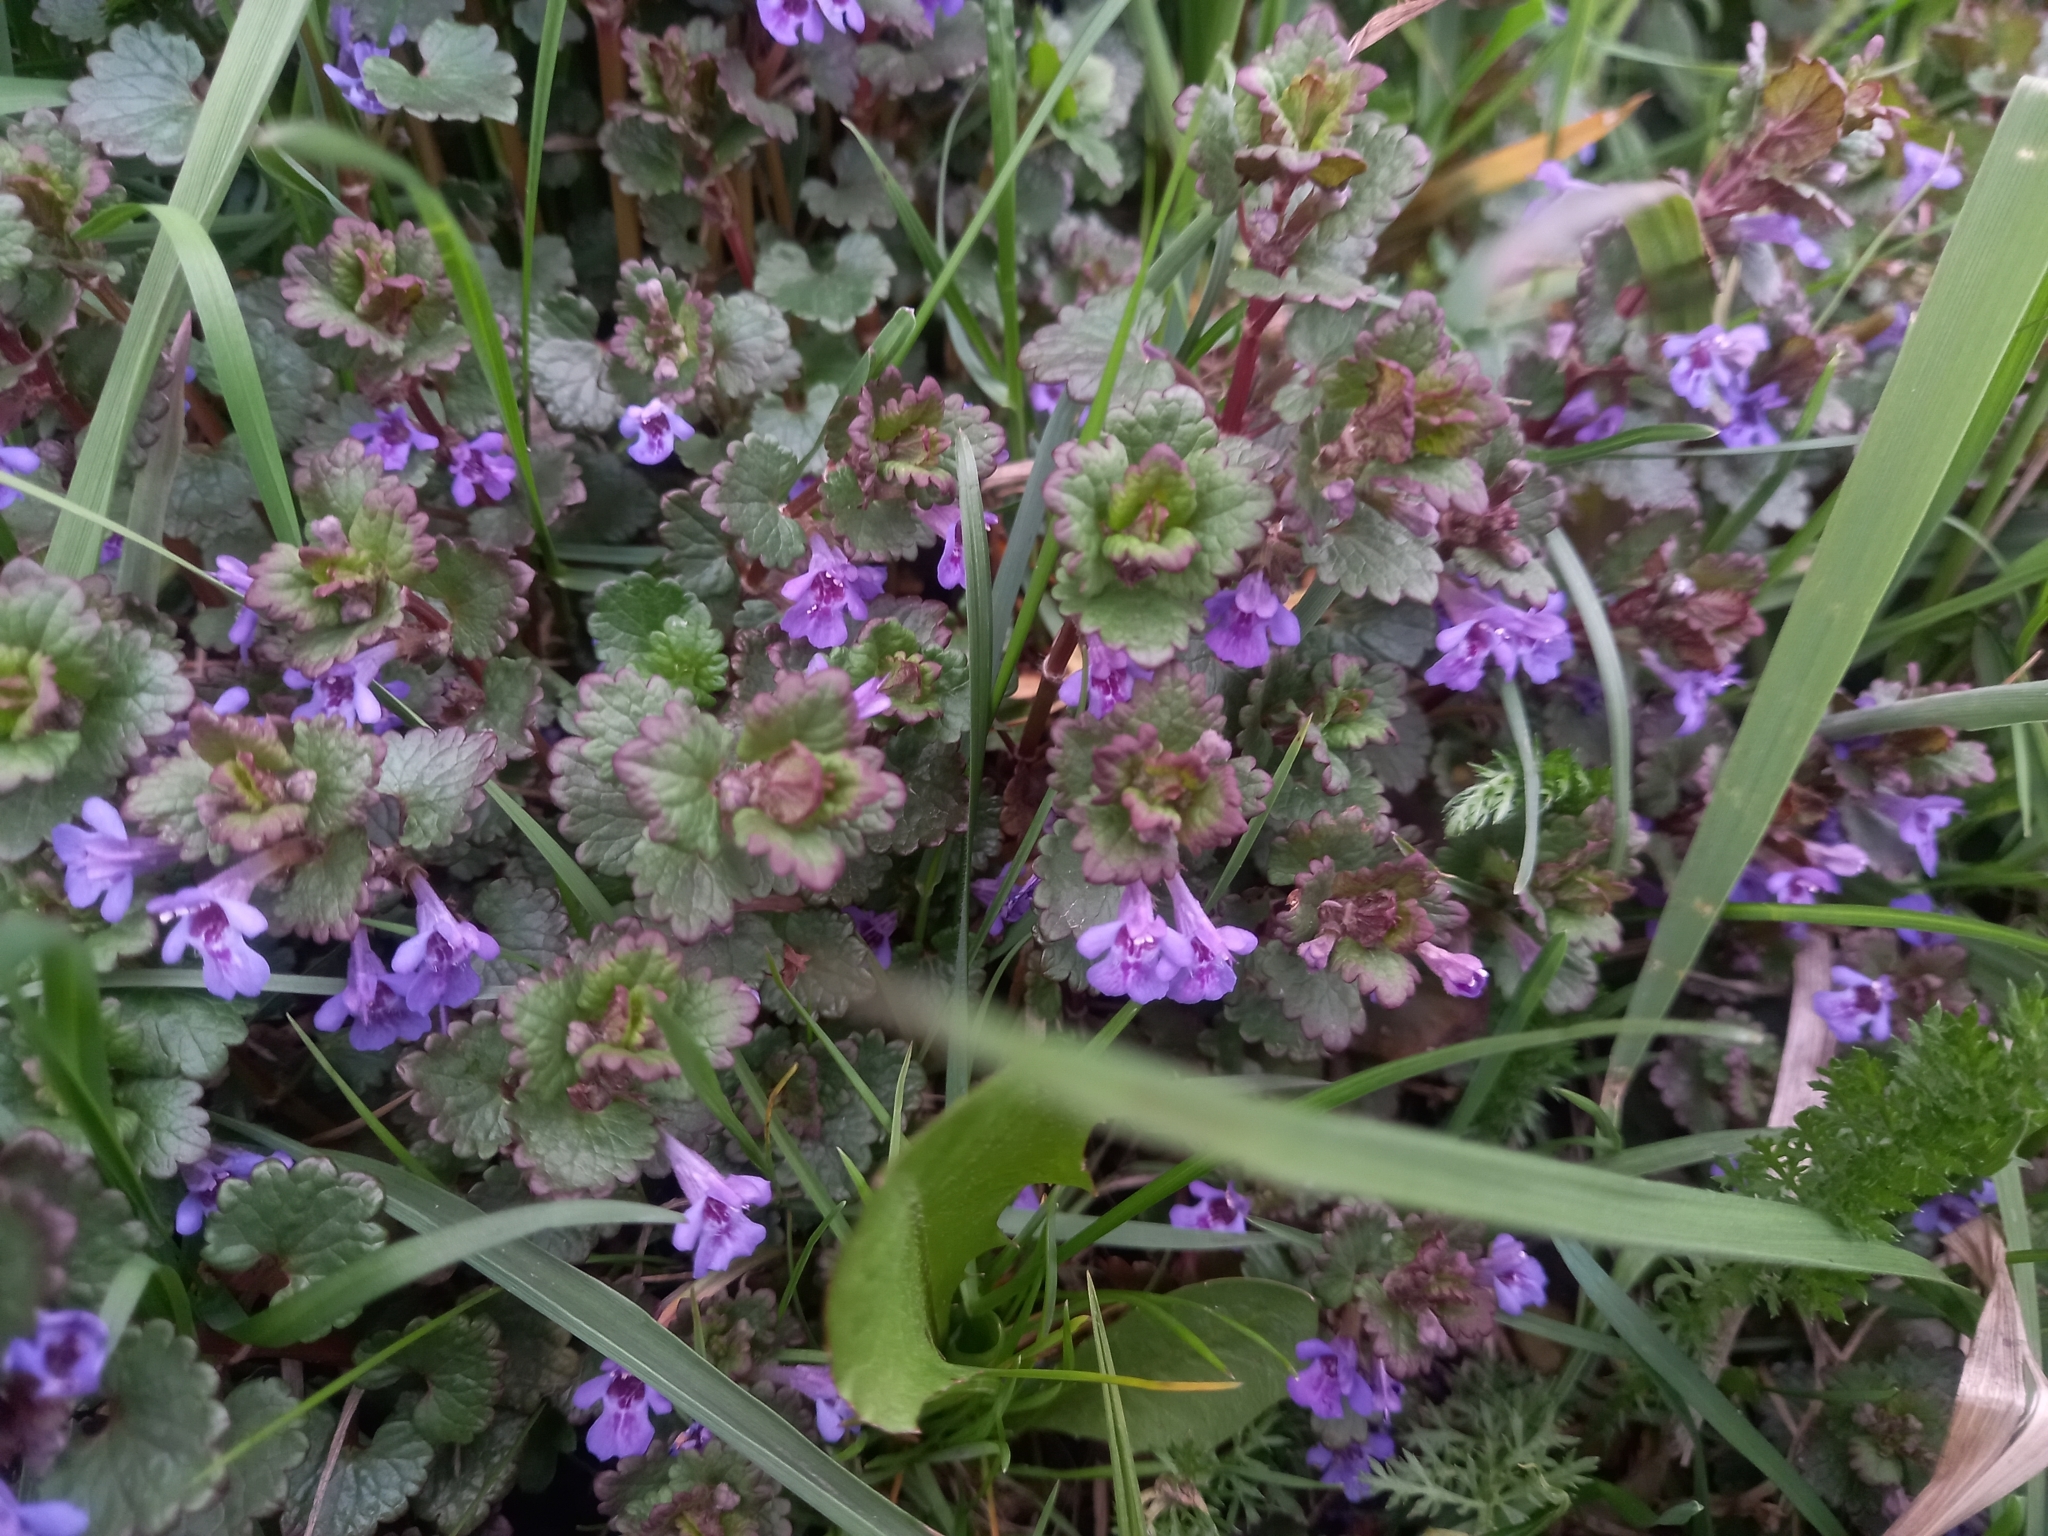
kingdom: Plantae
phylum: Tracheophyta
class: Magnoliopsida
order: Lamiales
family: Lamiaceae
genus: Glechoma
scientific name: Glechoma hederacea
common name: Ground ivy
